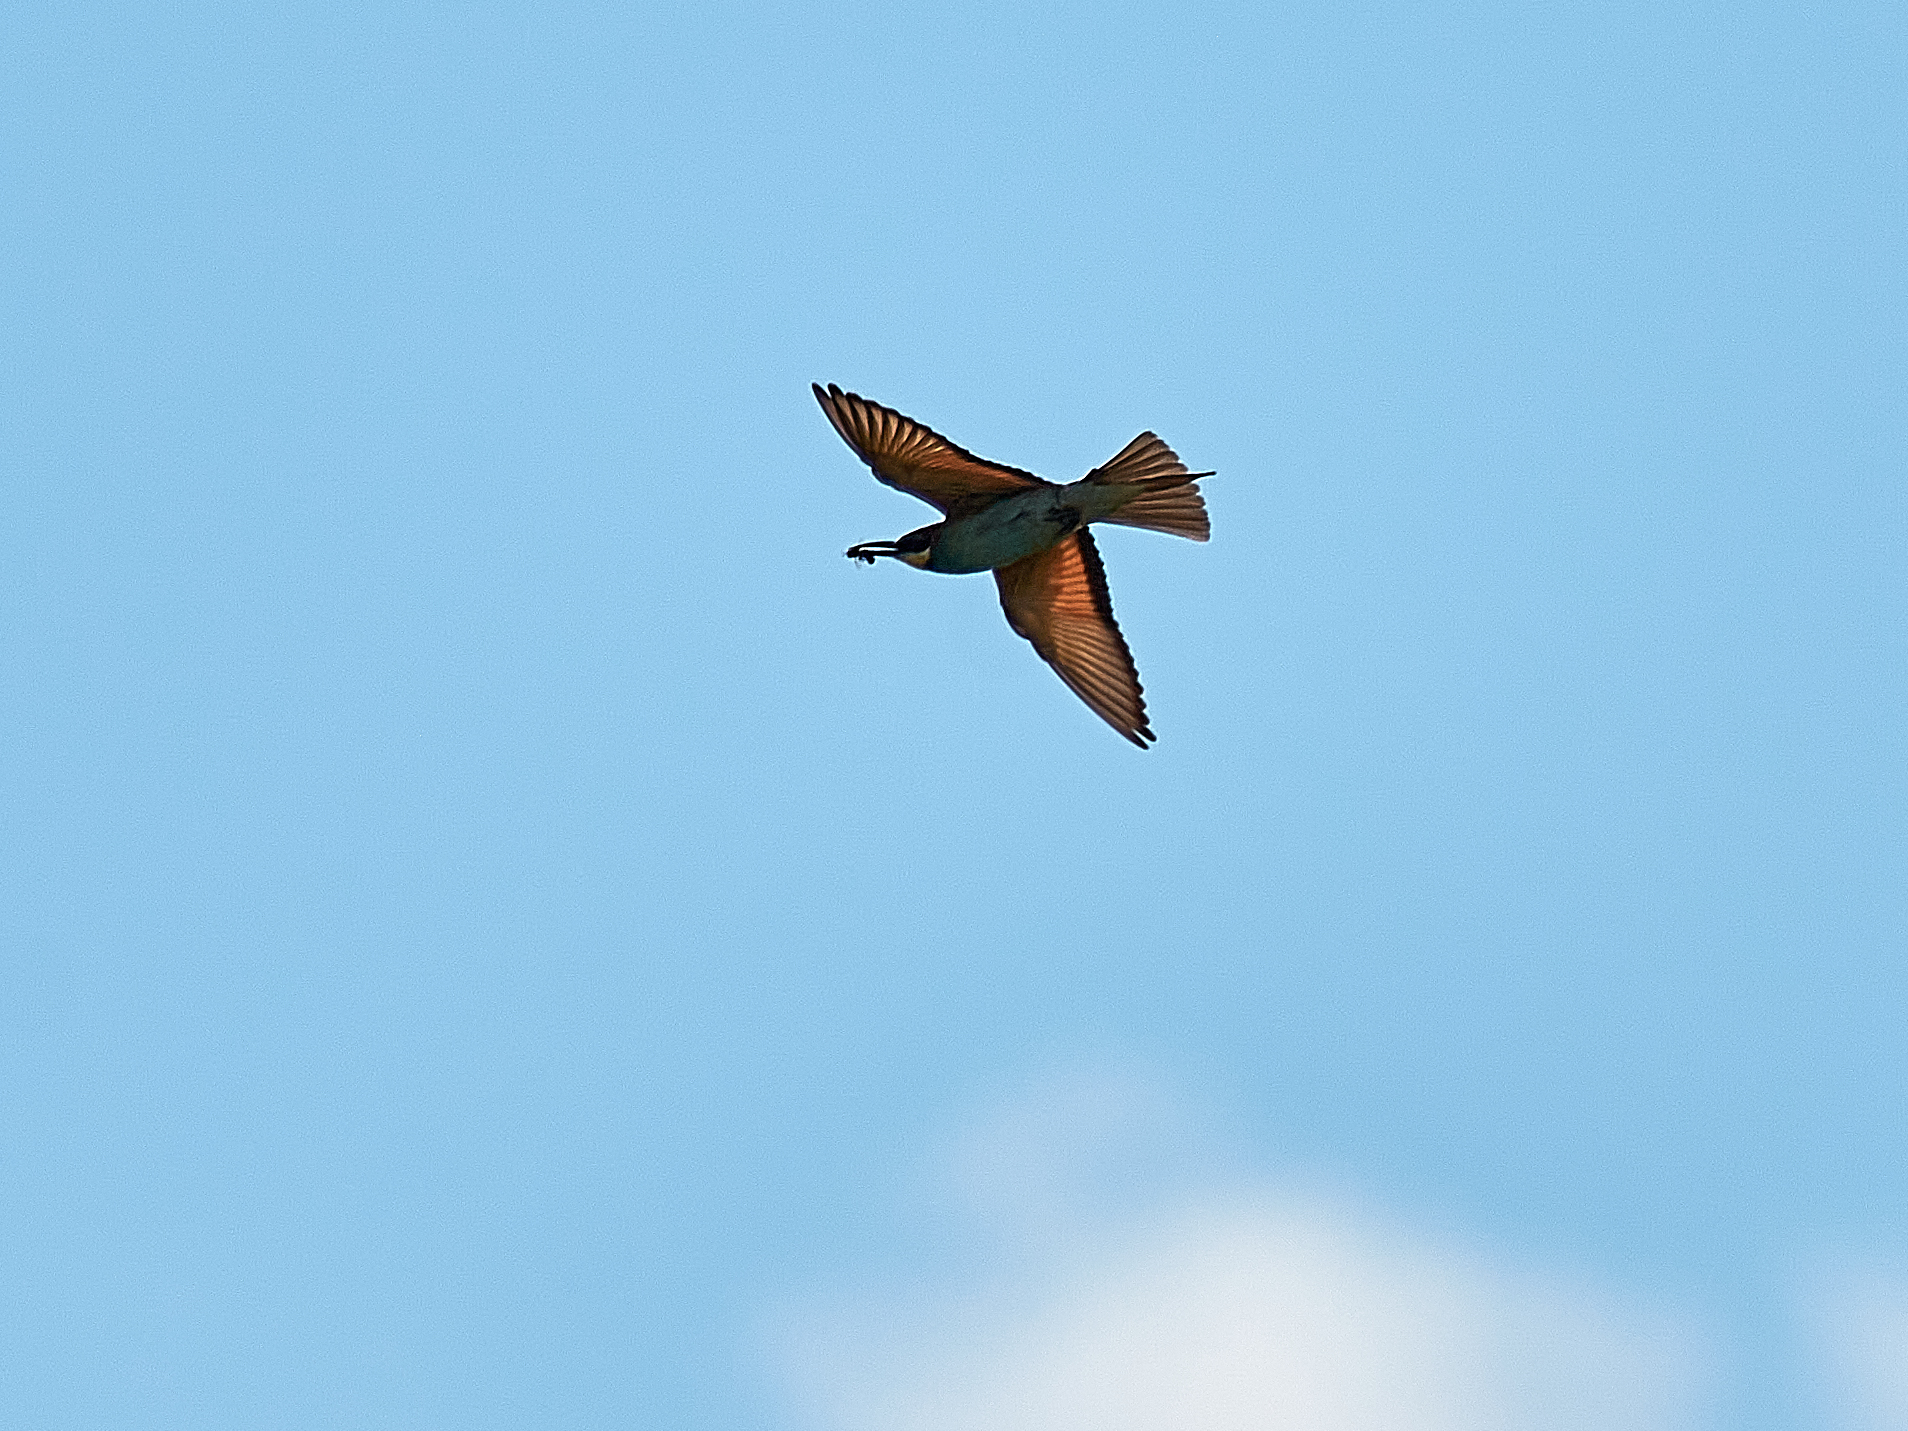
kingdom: Animalia
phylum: Chordata
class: Aves
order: Coraciiformes
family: Meropidae
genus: Merops
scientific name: Merops apiaster
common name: European bee-eater
